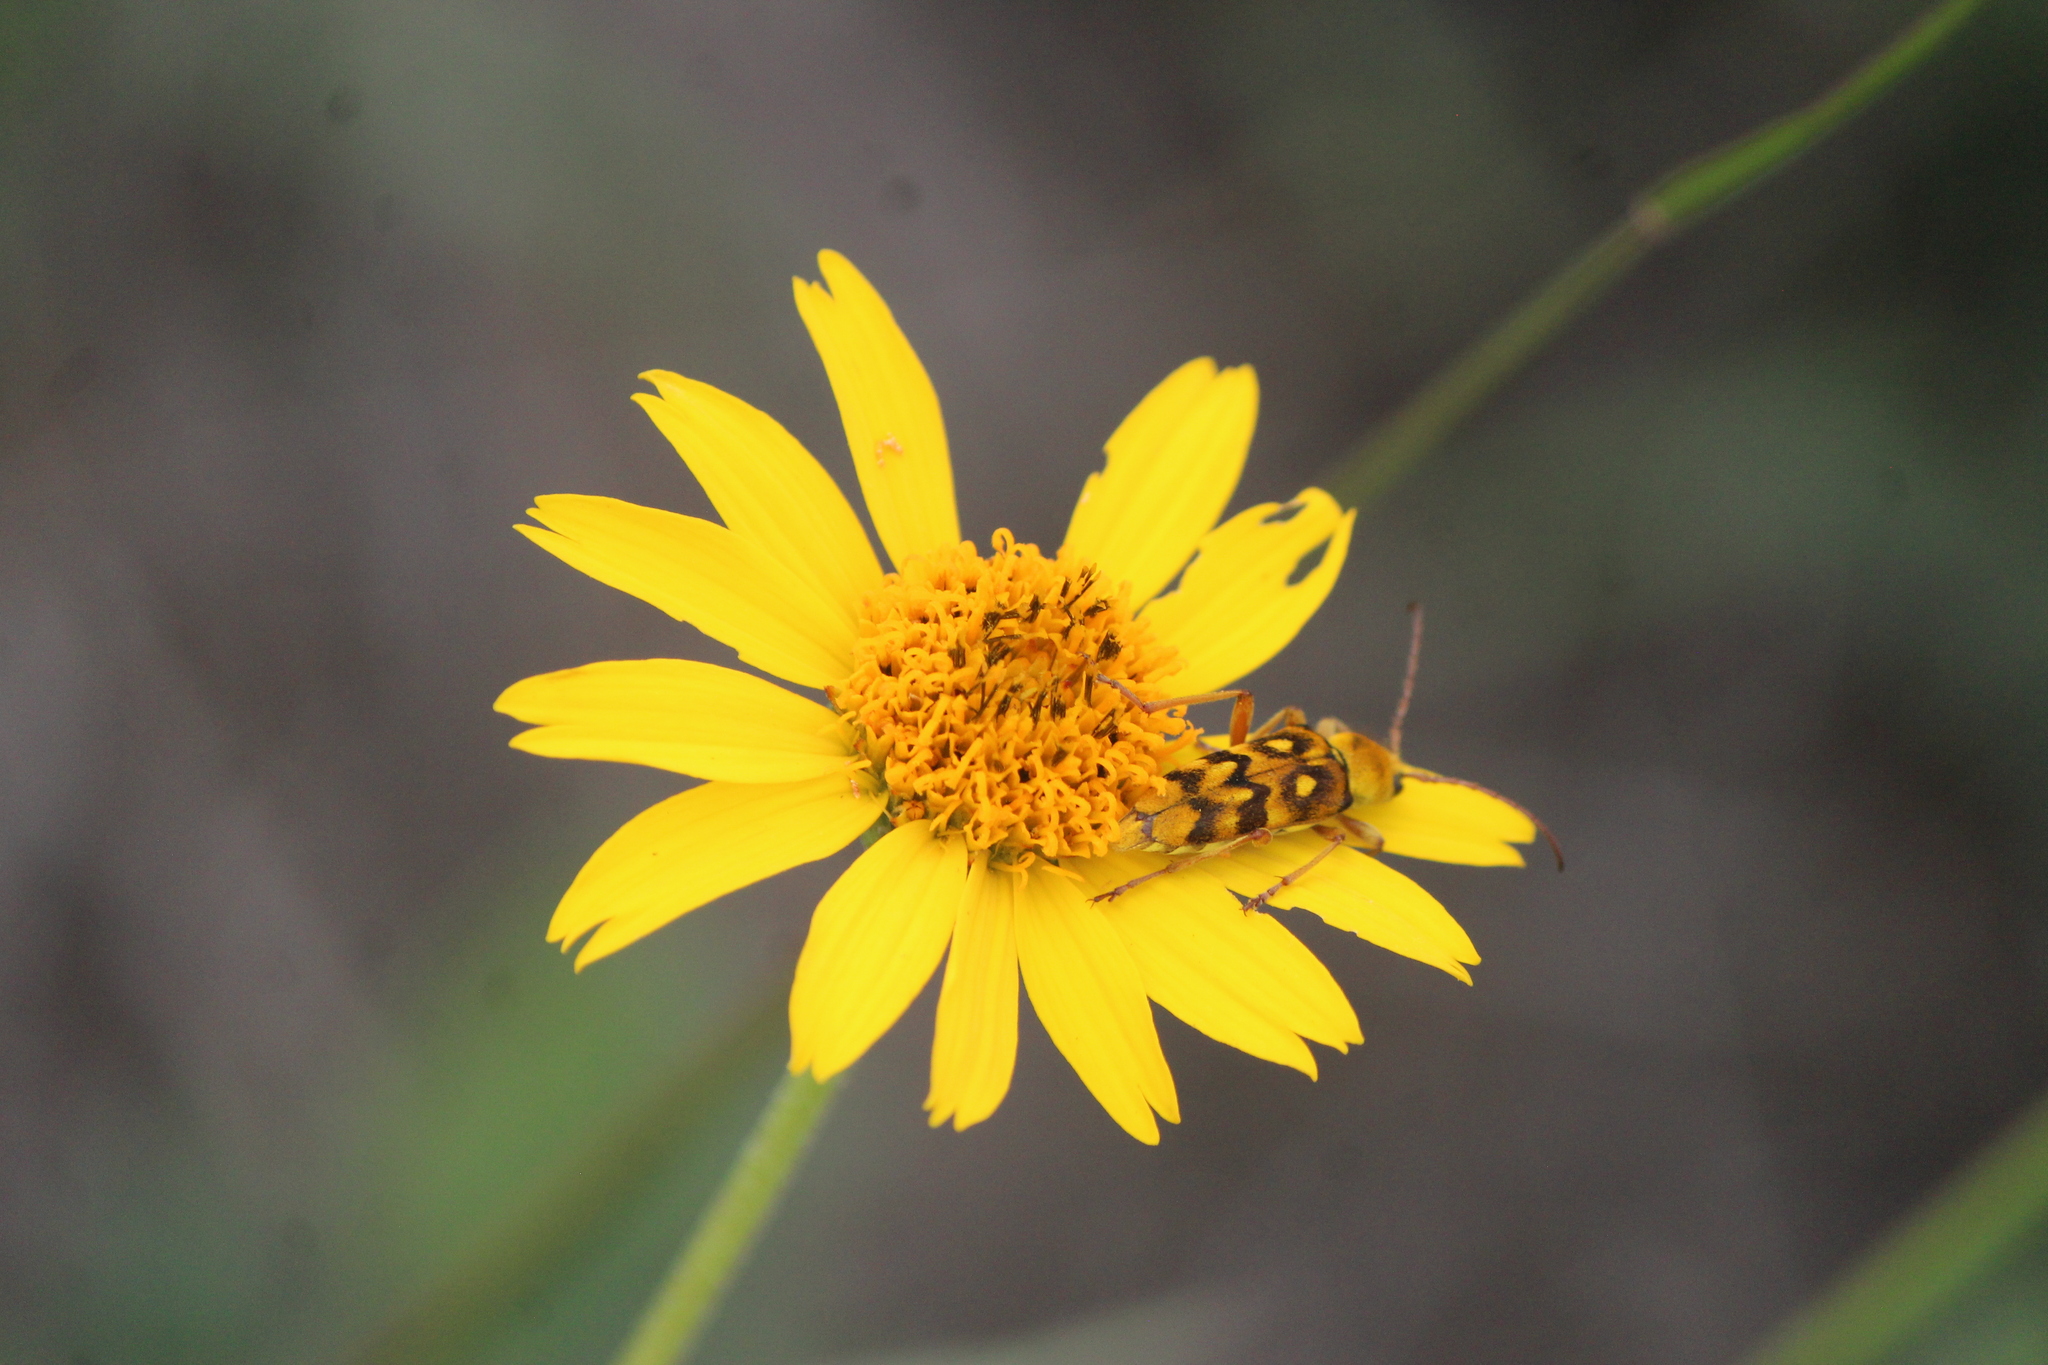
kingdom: Animalia
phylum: Arthropoda
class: Insecta
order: Coleoptera
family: Cerambycidae
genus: Ochraethes
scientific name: Ochraethes sommeri
